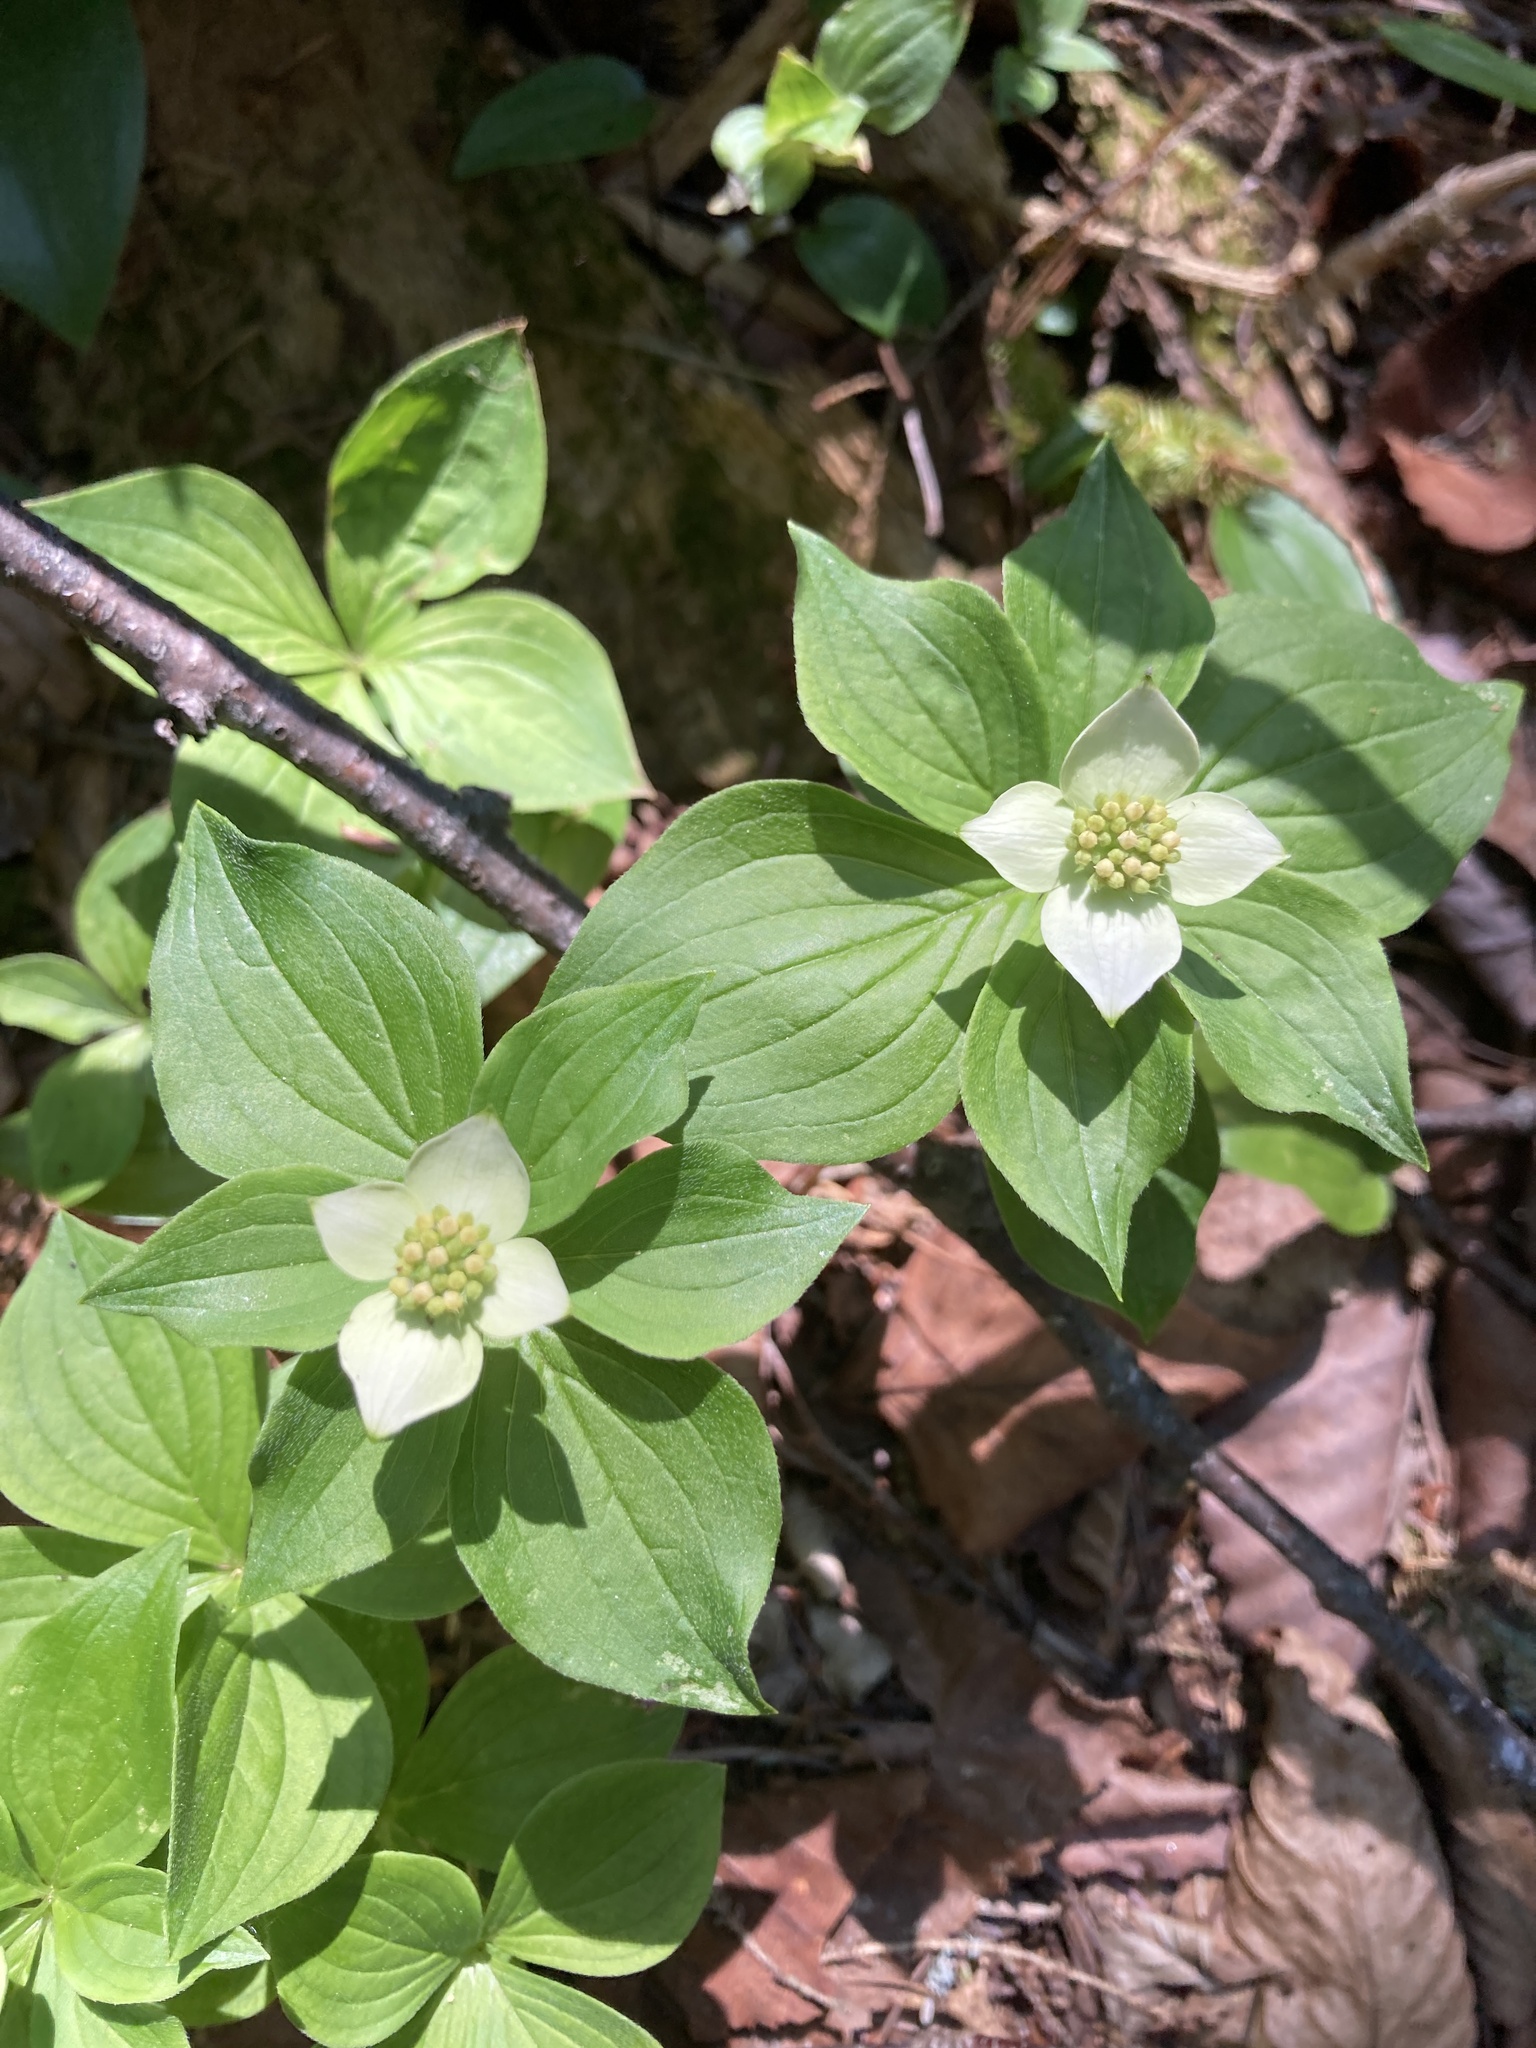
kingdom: Plantae
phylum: Tracheophyta
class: Magnoliopsida
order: Cornales
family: Cornaceae
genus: Cornus
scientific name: Cornus canadensis
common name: Creeping dogwood
